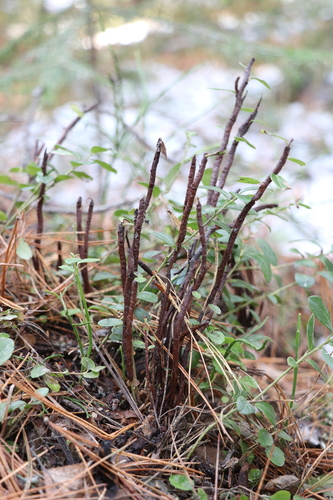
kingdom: Fungi
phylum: Basidiomycota
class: Pucciniomycetes
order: Pucciniales
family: Pucciniastraceae
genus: Calyptospora
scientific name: Calyptospora columnaris
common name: Huckleberry broom rust fungus
